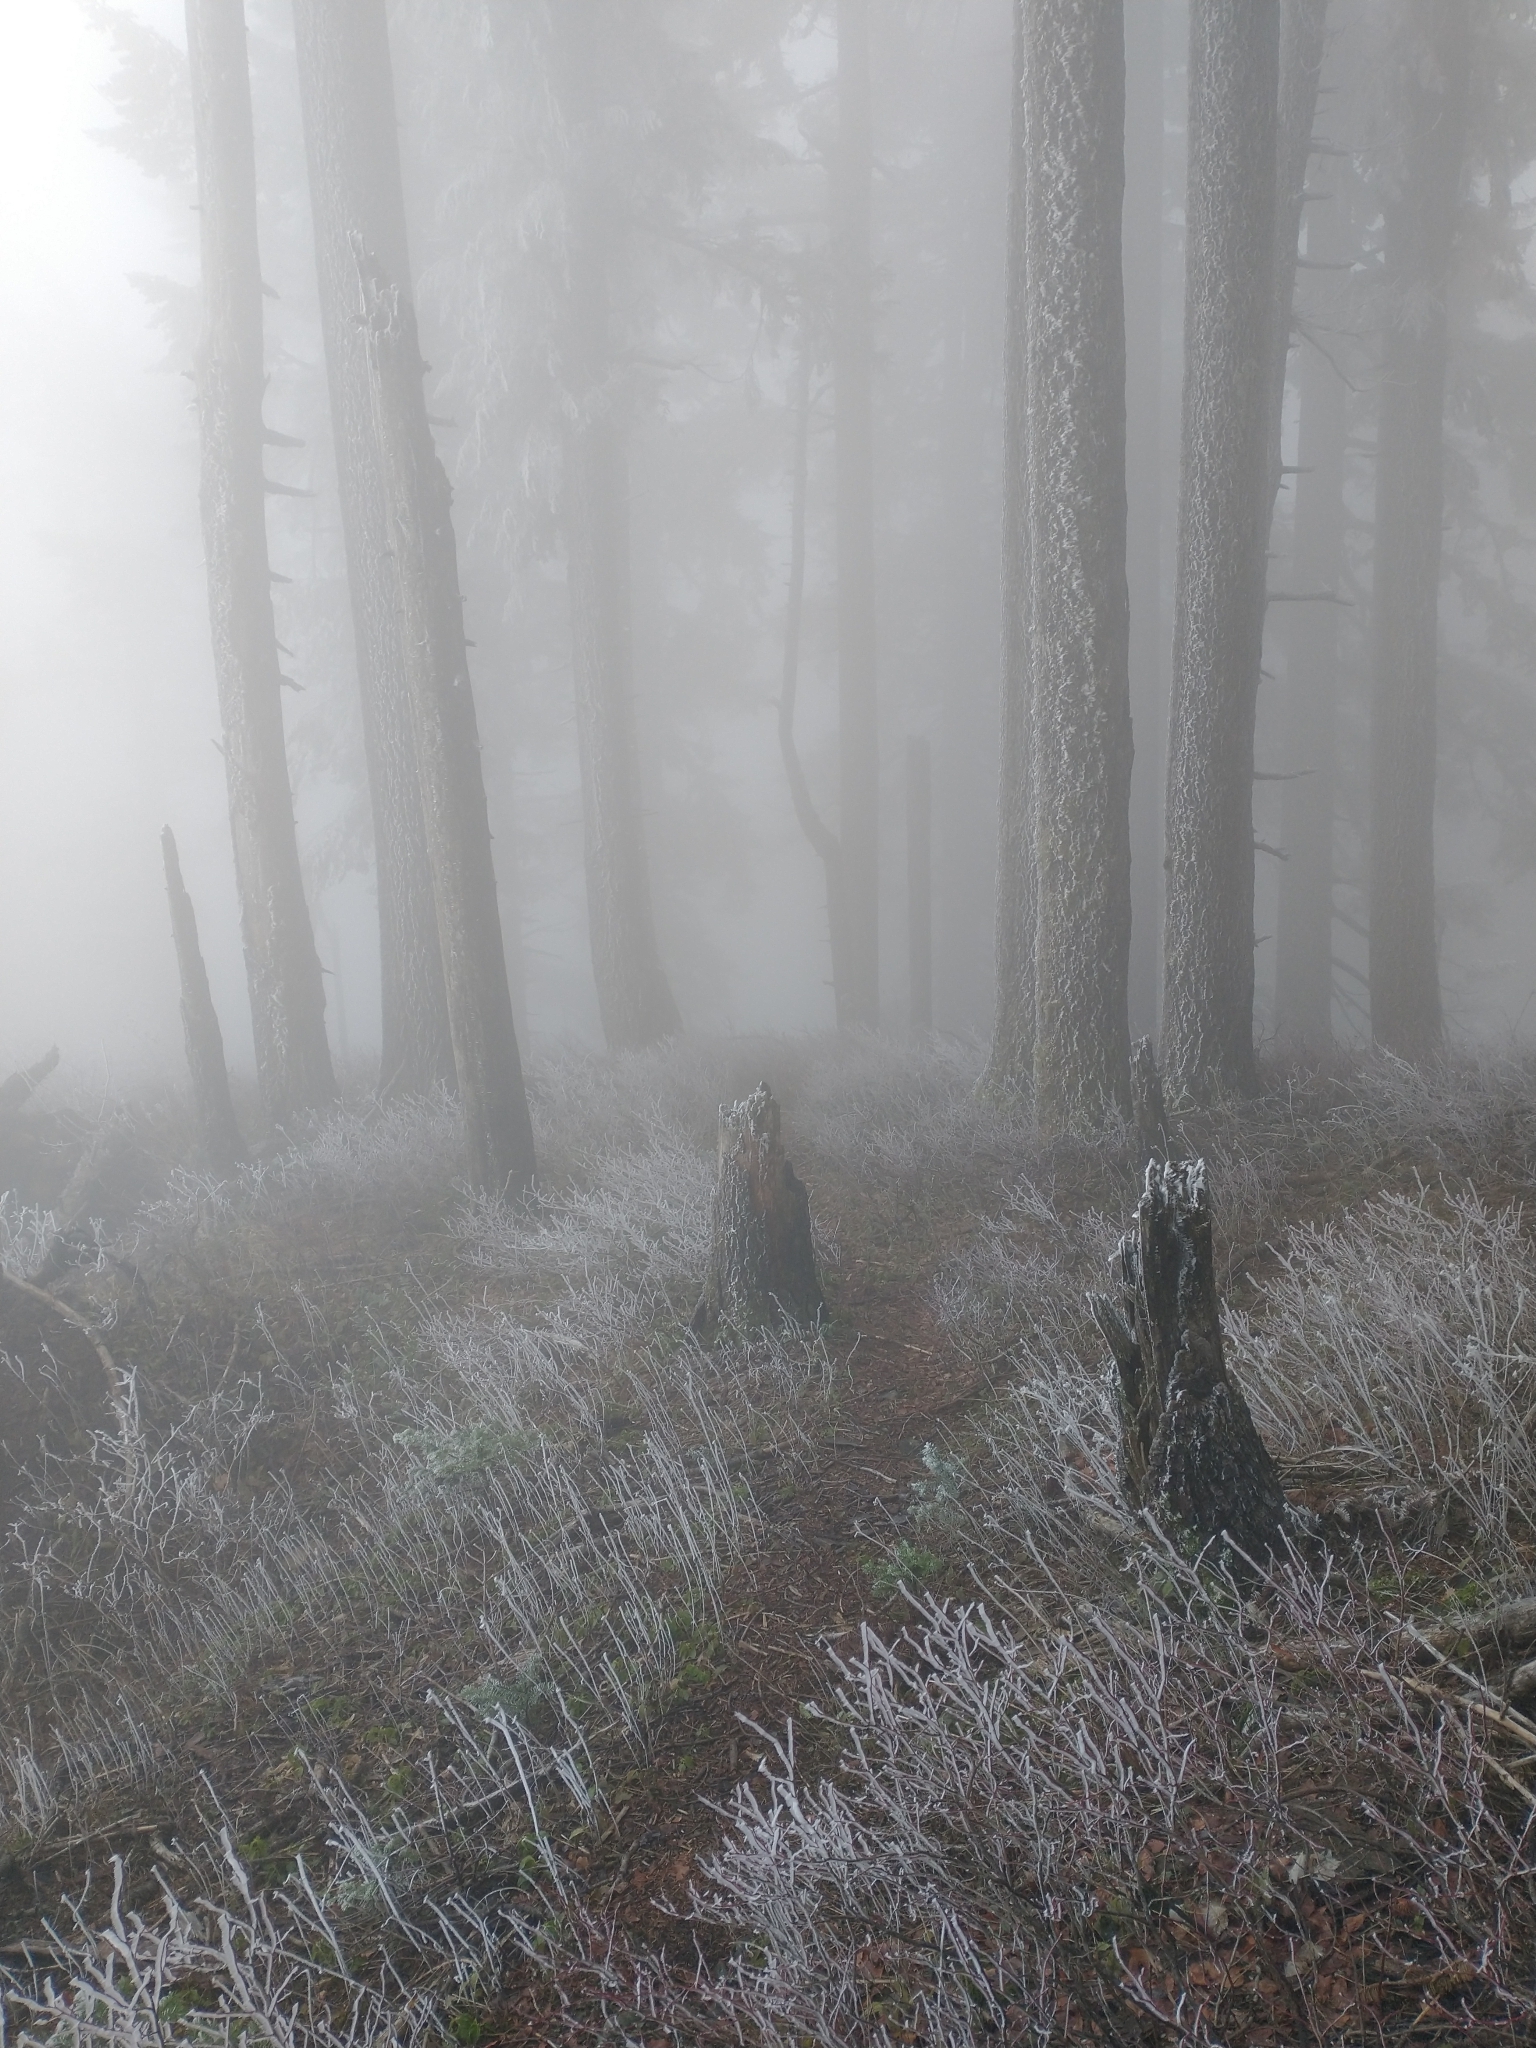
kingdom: Plantae
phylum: Tracheophyta
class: Pinopsida
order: Pinales
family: Pinaceae
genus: Abies
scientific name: Abies procera
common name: Noble fir
